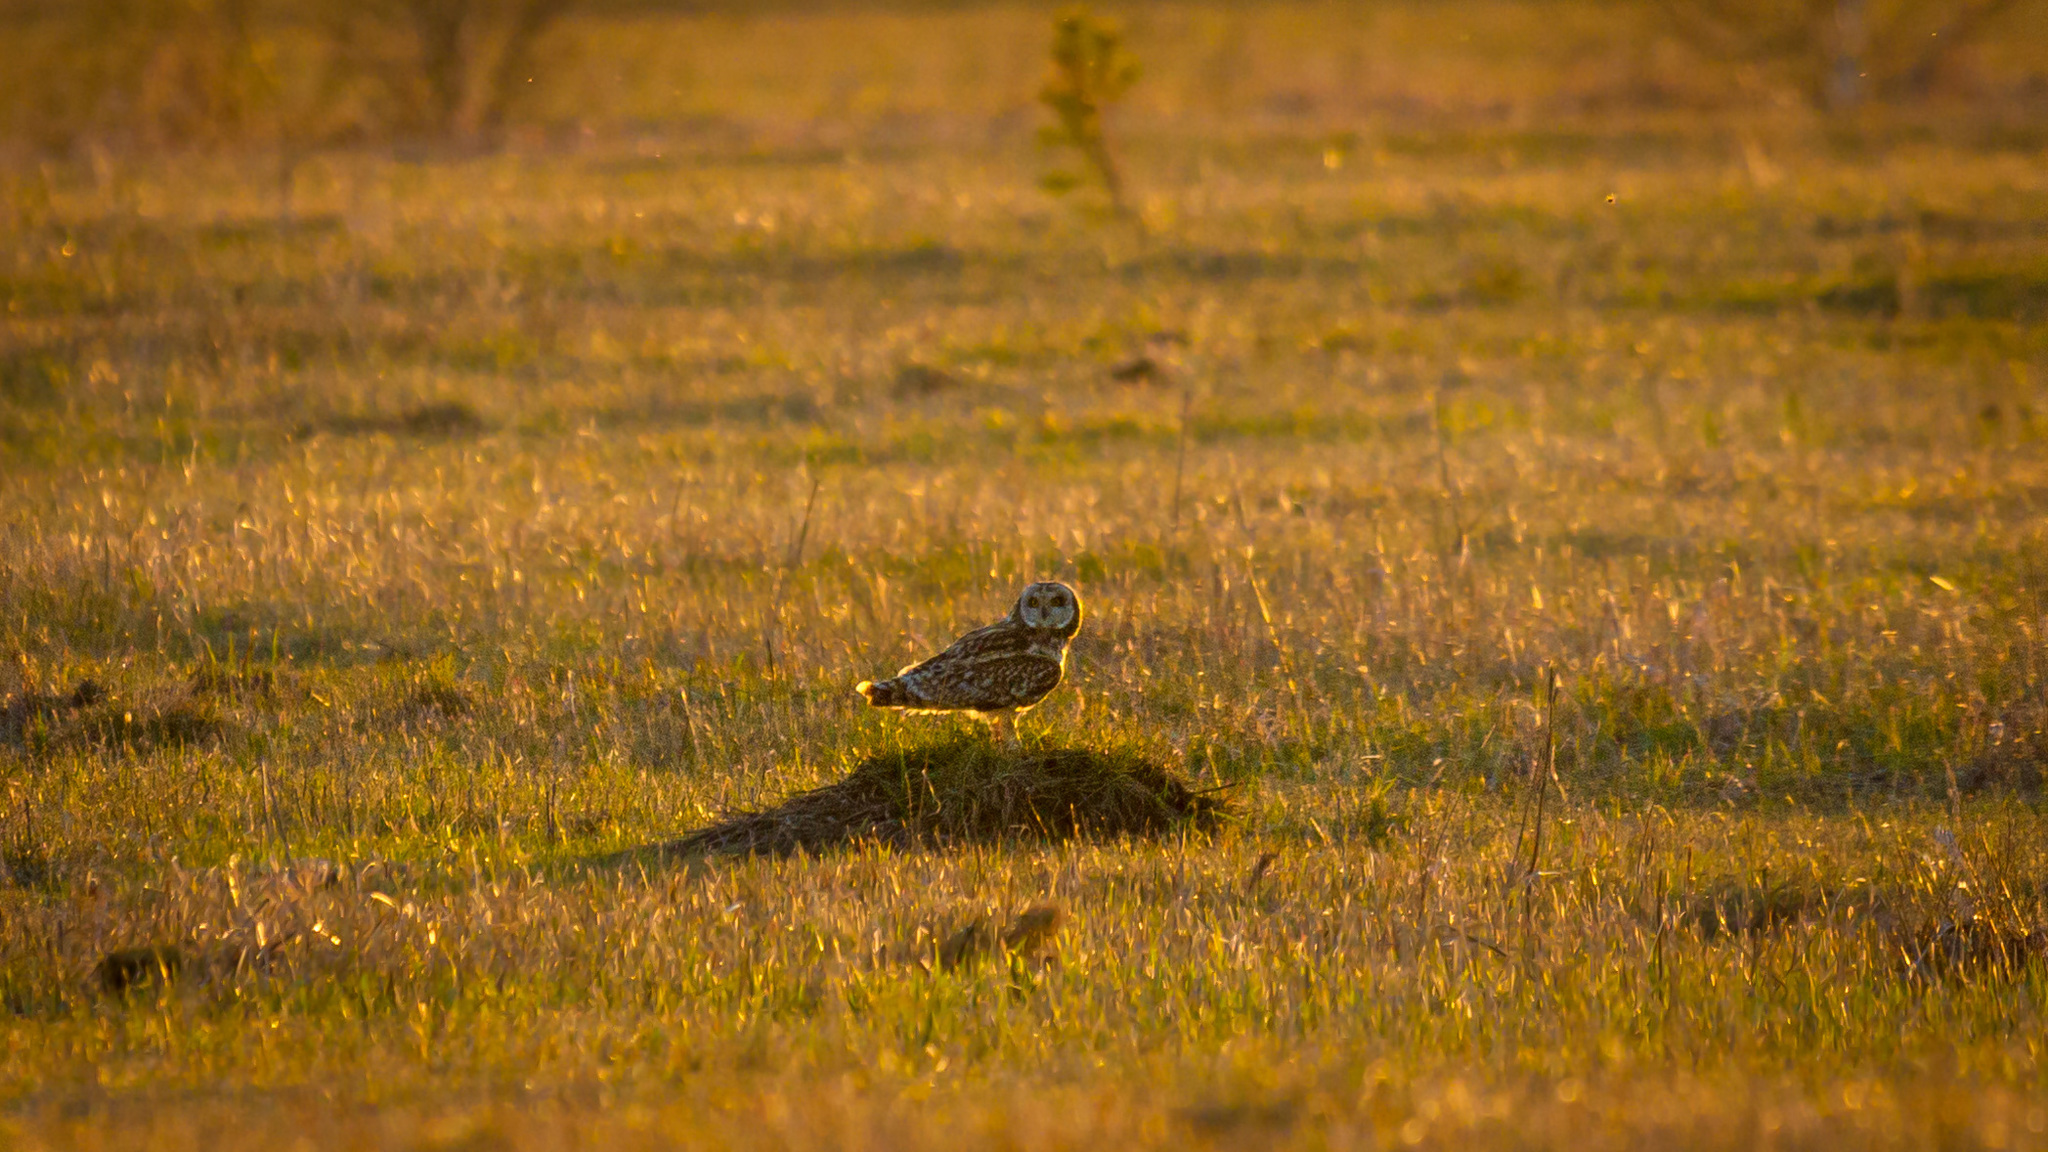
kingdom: Animalia
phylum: Chordata
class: Aves
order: Strigiformes
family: Strigidae
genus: Asio
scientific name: Asio flammeus
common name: Short-eared owl
